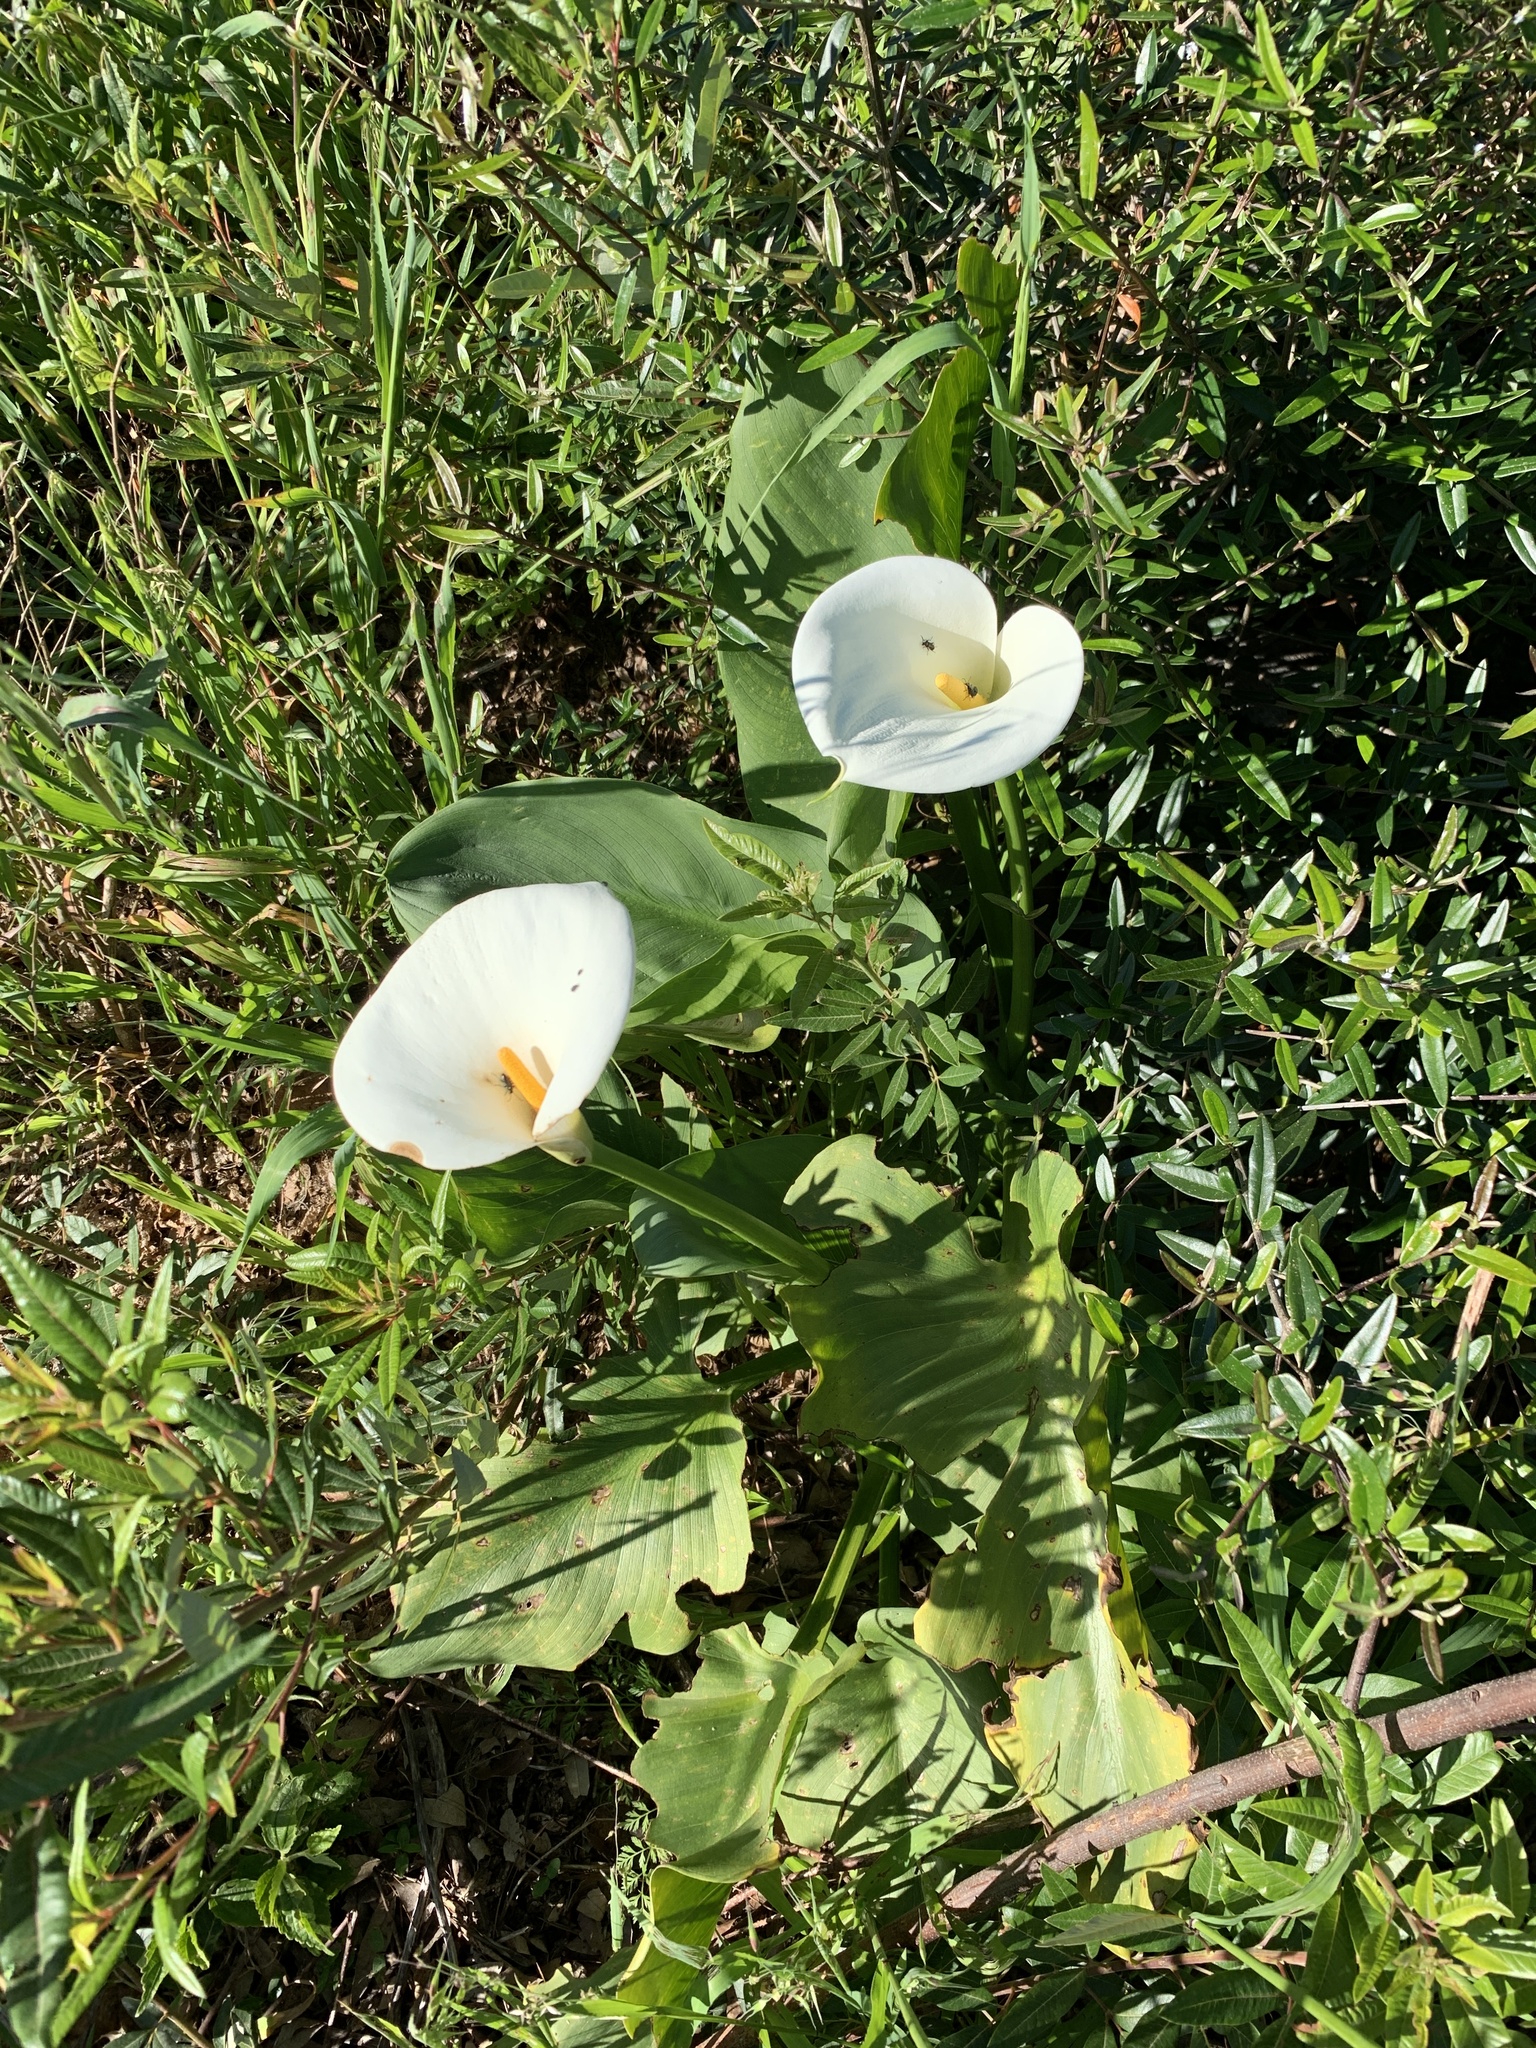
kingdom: Plantae
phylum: Tracheophyta
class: Liliopsida
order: Alismatales
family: Araceae
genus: Zantedeschia
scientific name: Zantedeschia aethiopica
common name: Altar-lily
